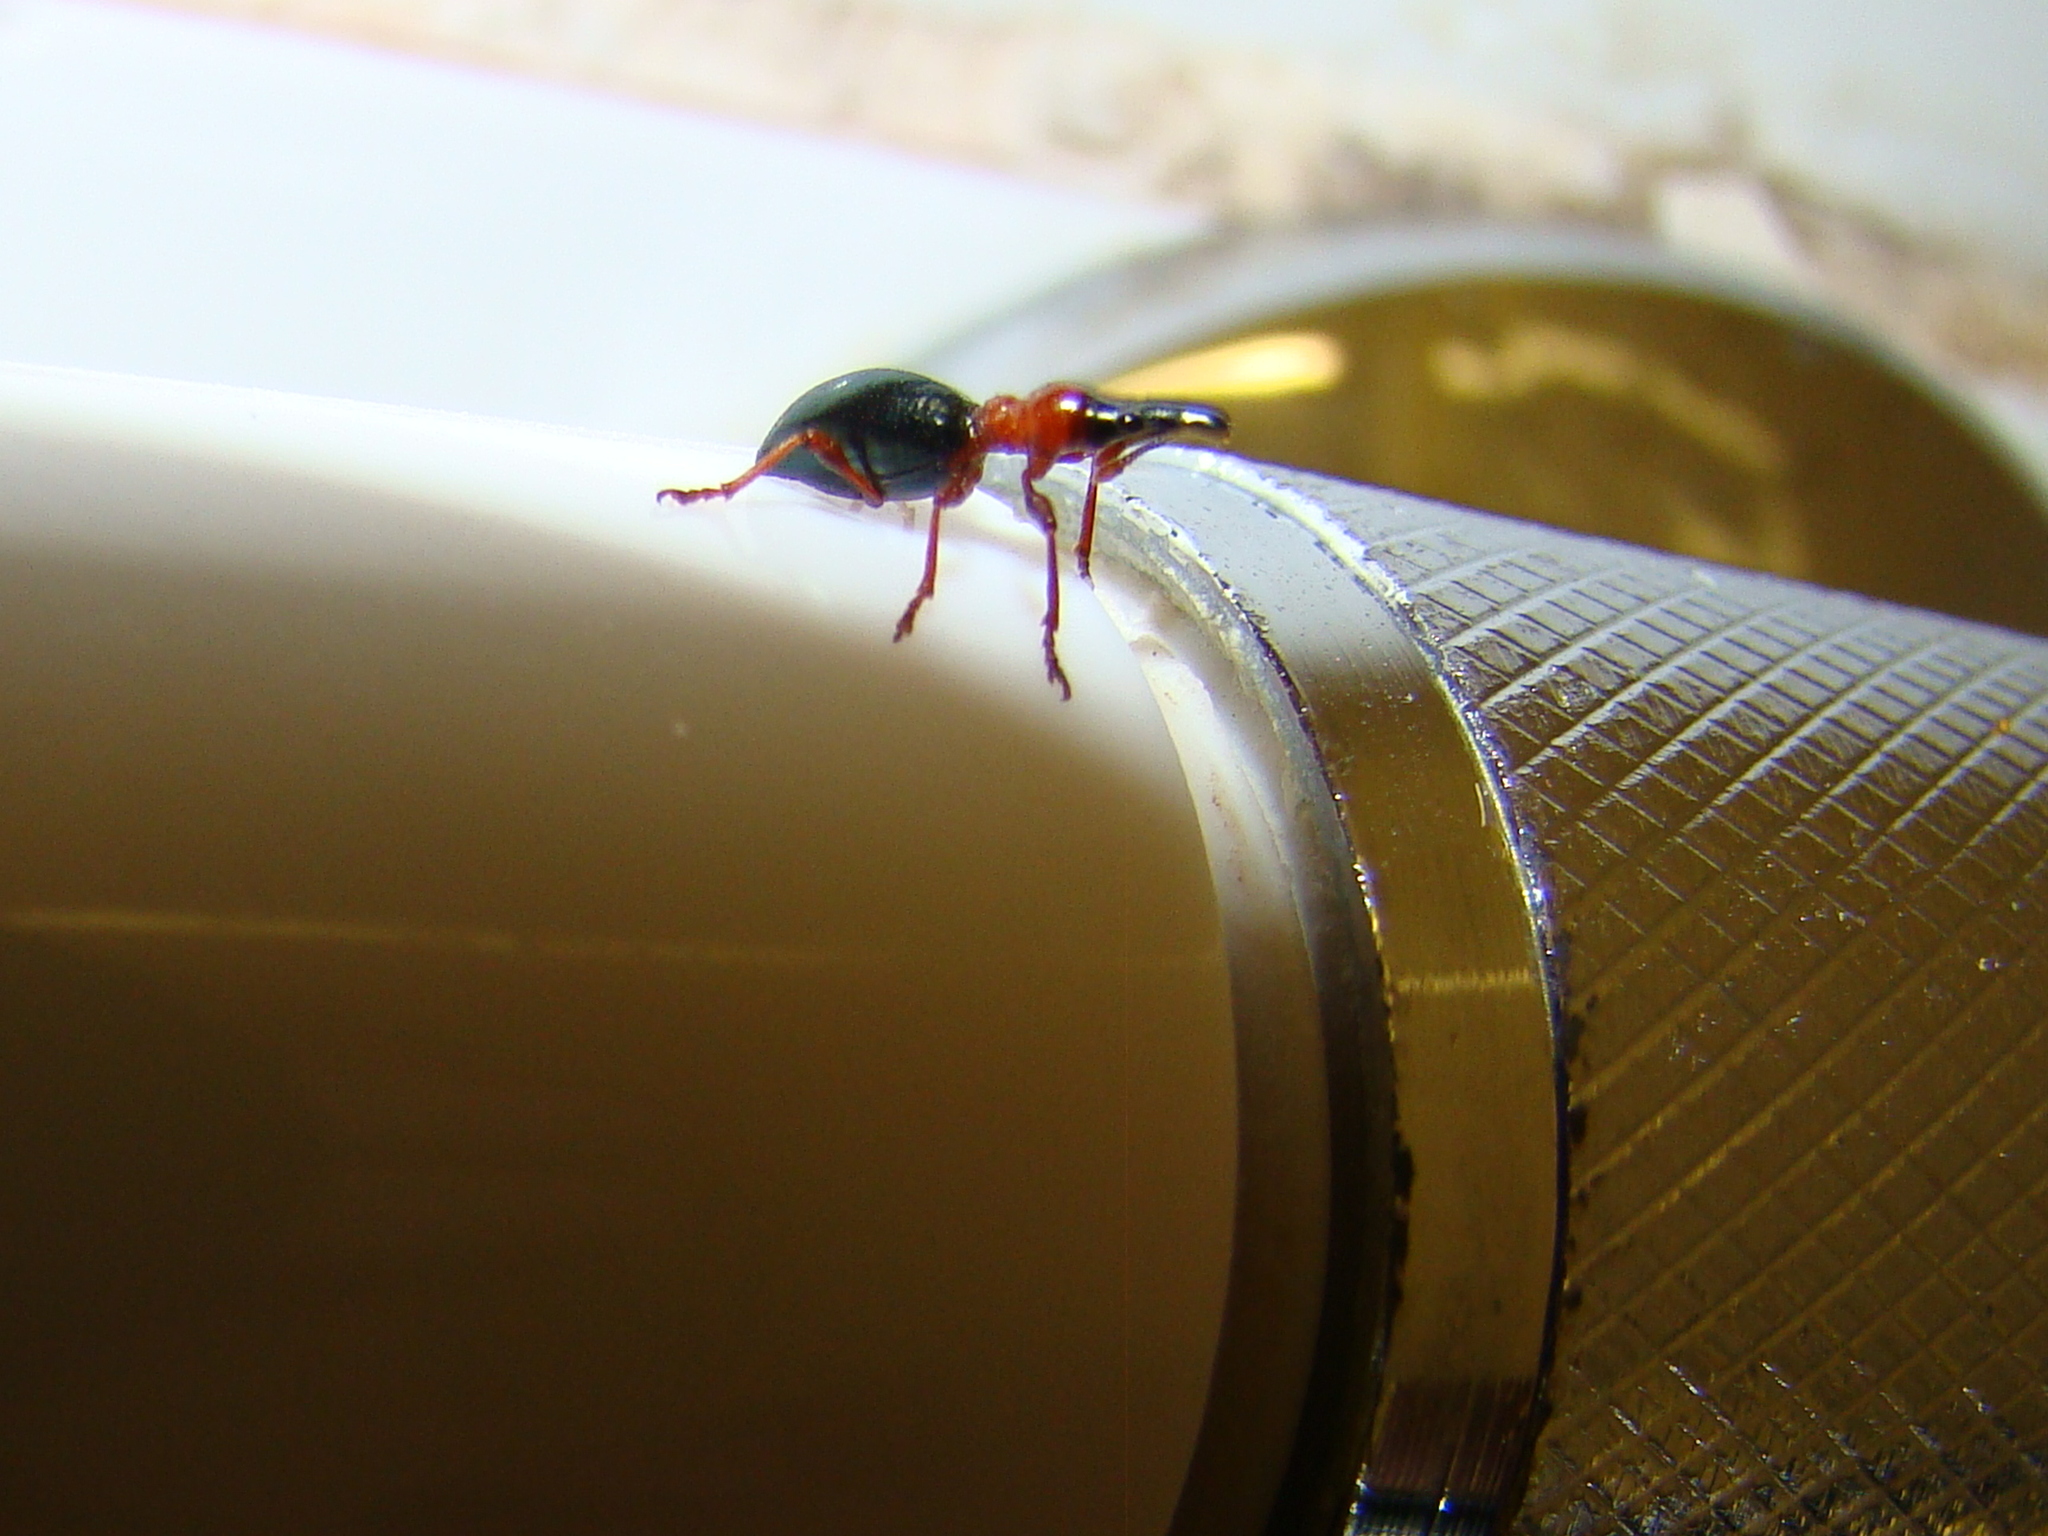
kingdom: Animalia
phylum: Arthropoda
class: Insecta
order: Coleoptera
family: Brentidae
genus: Cylas
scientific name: Cylas formicarius
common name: Sweetpotato weevil
